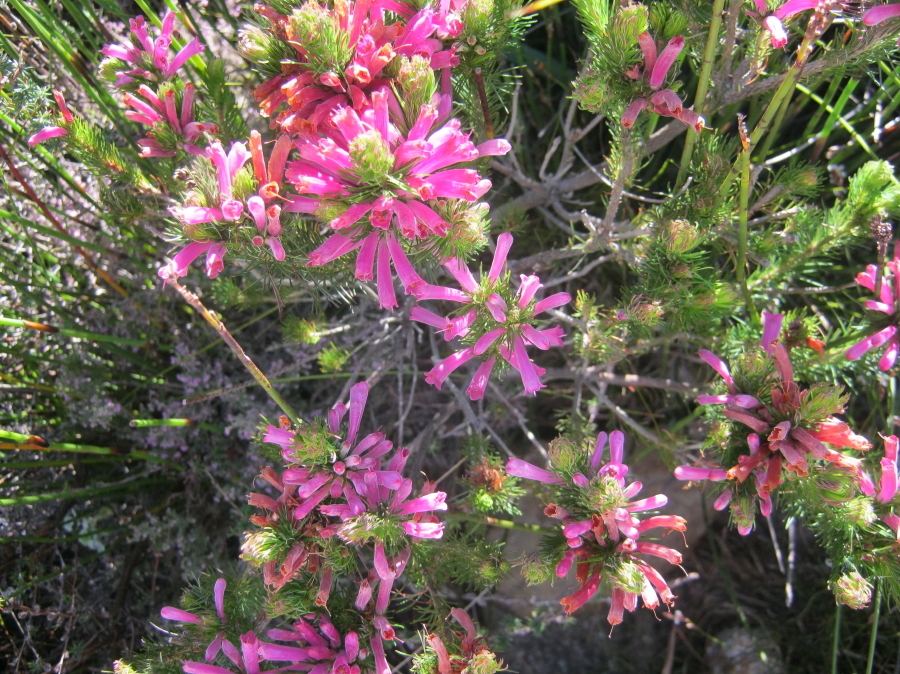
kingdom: Plantae
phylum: Tracheophyta
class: Magnoliopsida
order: Ericales
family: Ericaceae
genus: Erica
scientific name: Erica vestita
